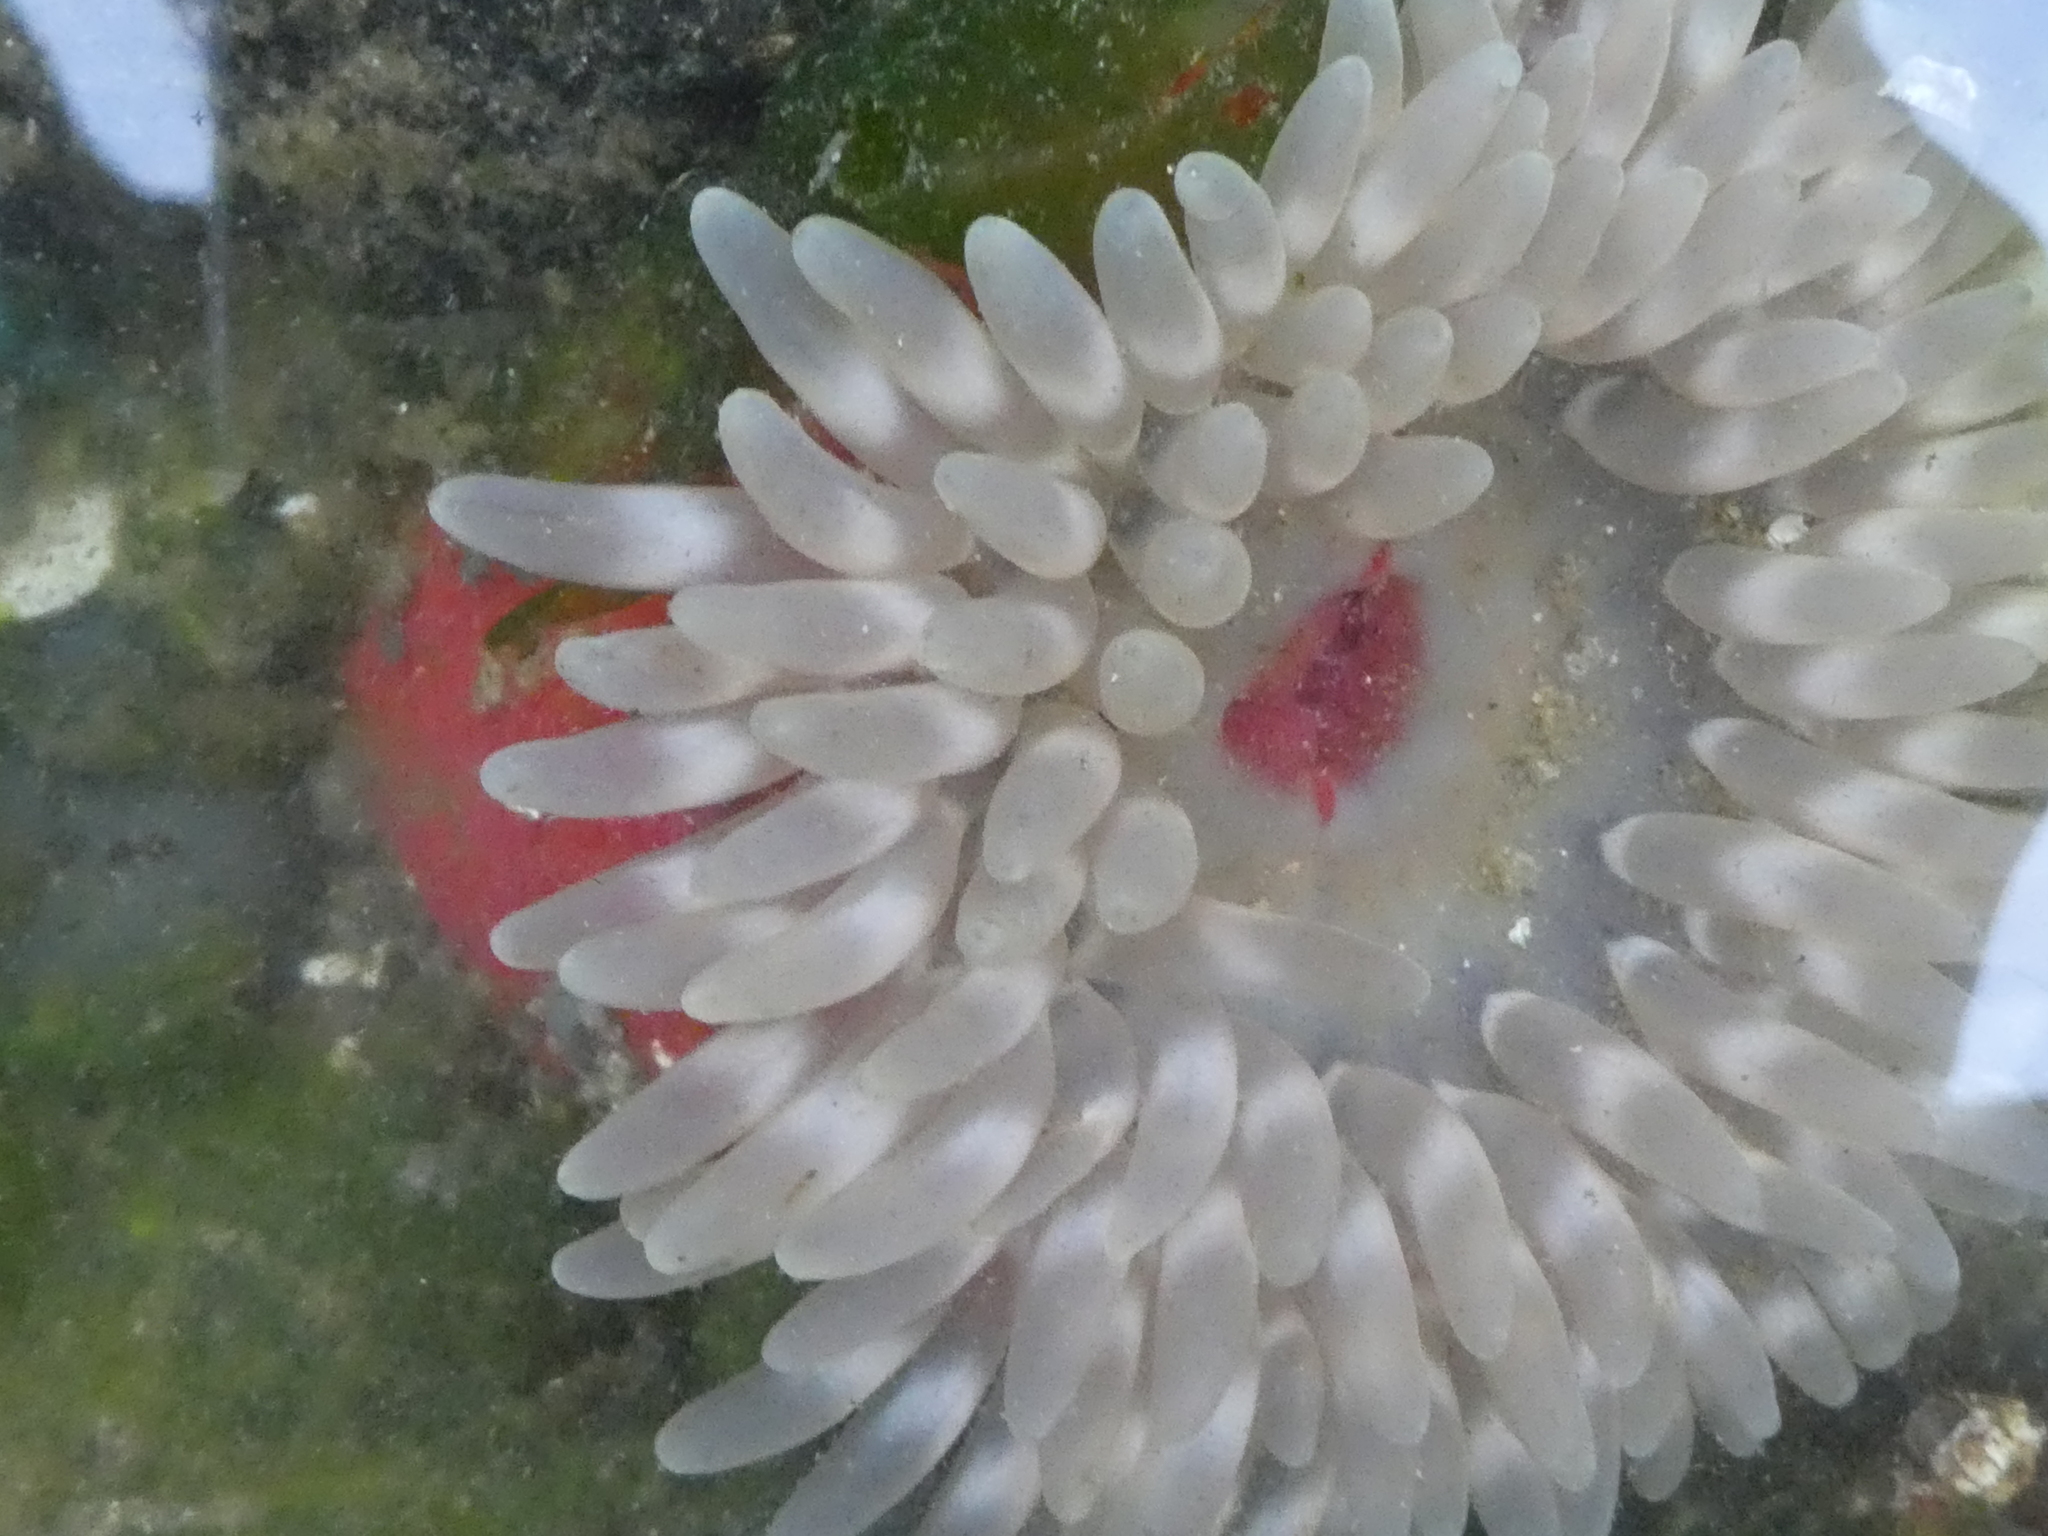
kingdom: Animalia
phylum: Cnidaria
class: Anthozoa
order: Actiniaria
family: Actiniidae
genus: Urticina
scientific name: Urticina clandestina
